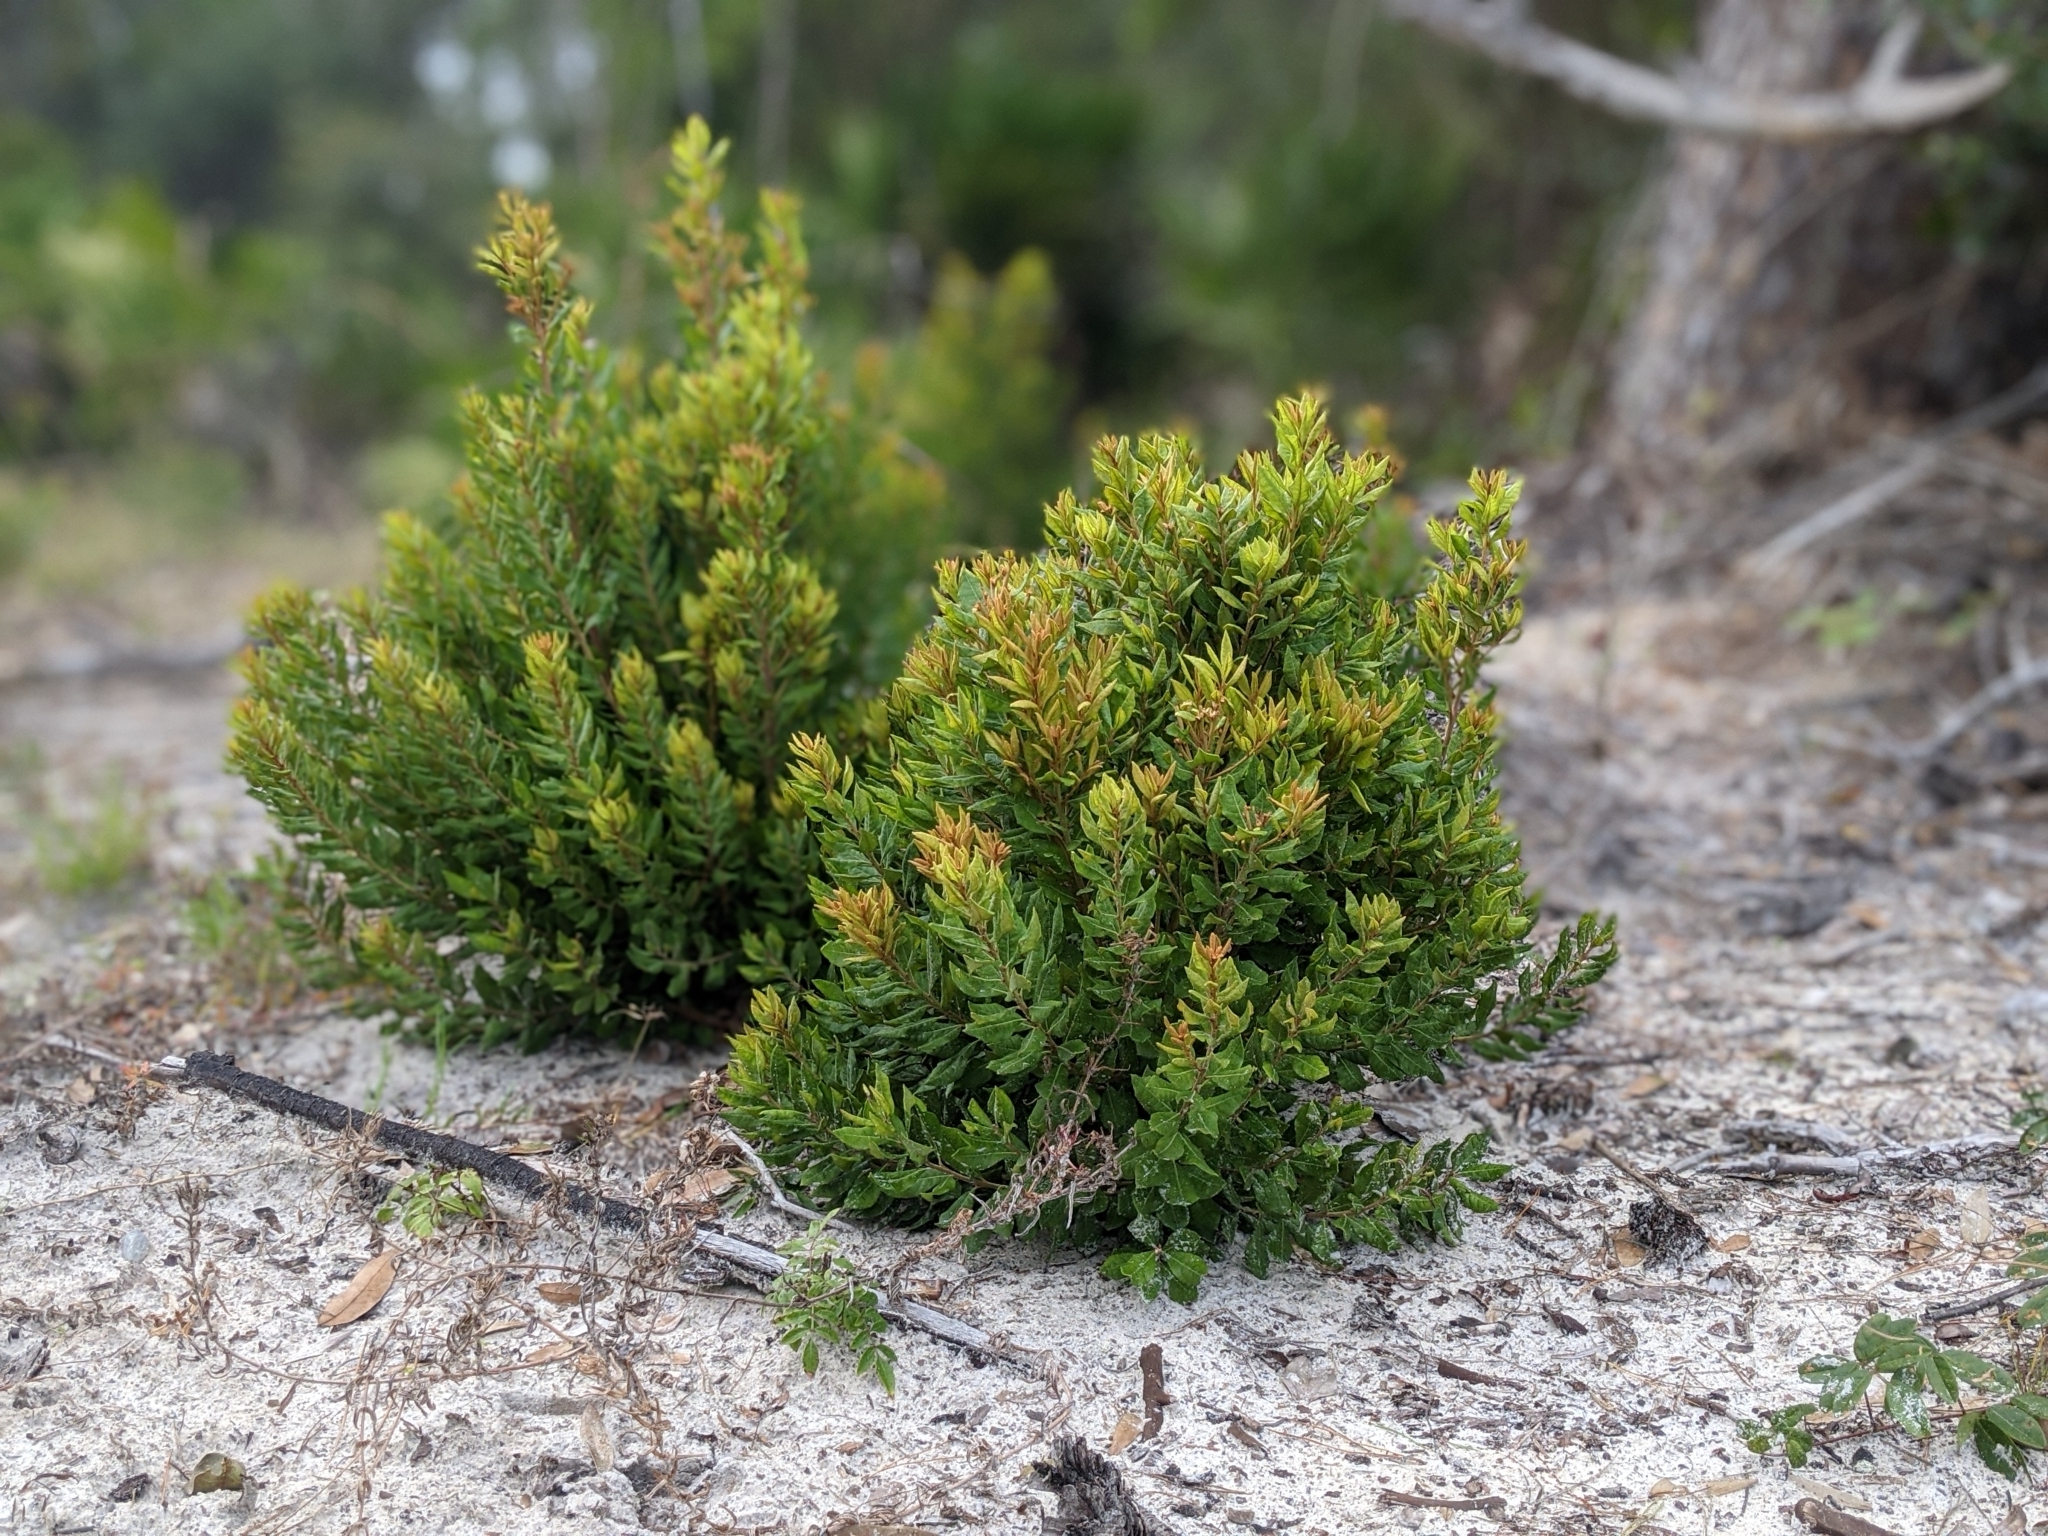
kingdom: Plantae
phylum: Tracheophyta
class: Magnoliopsida
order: Ericales
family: Ericaceae
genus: Lyonia
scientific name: Lyonia ferruginea
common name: Rusty lyonia
